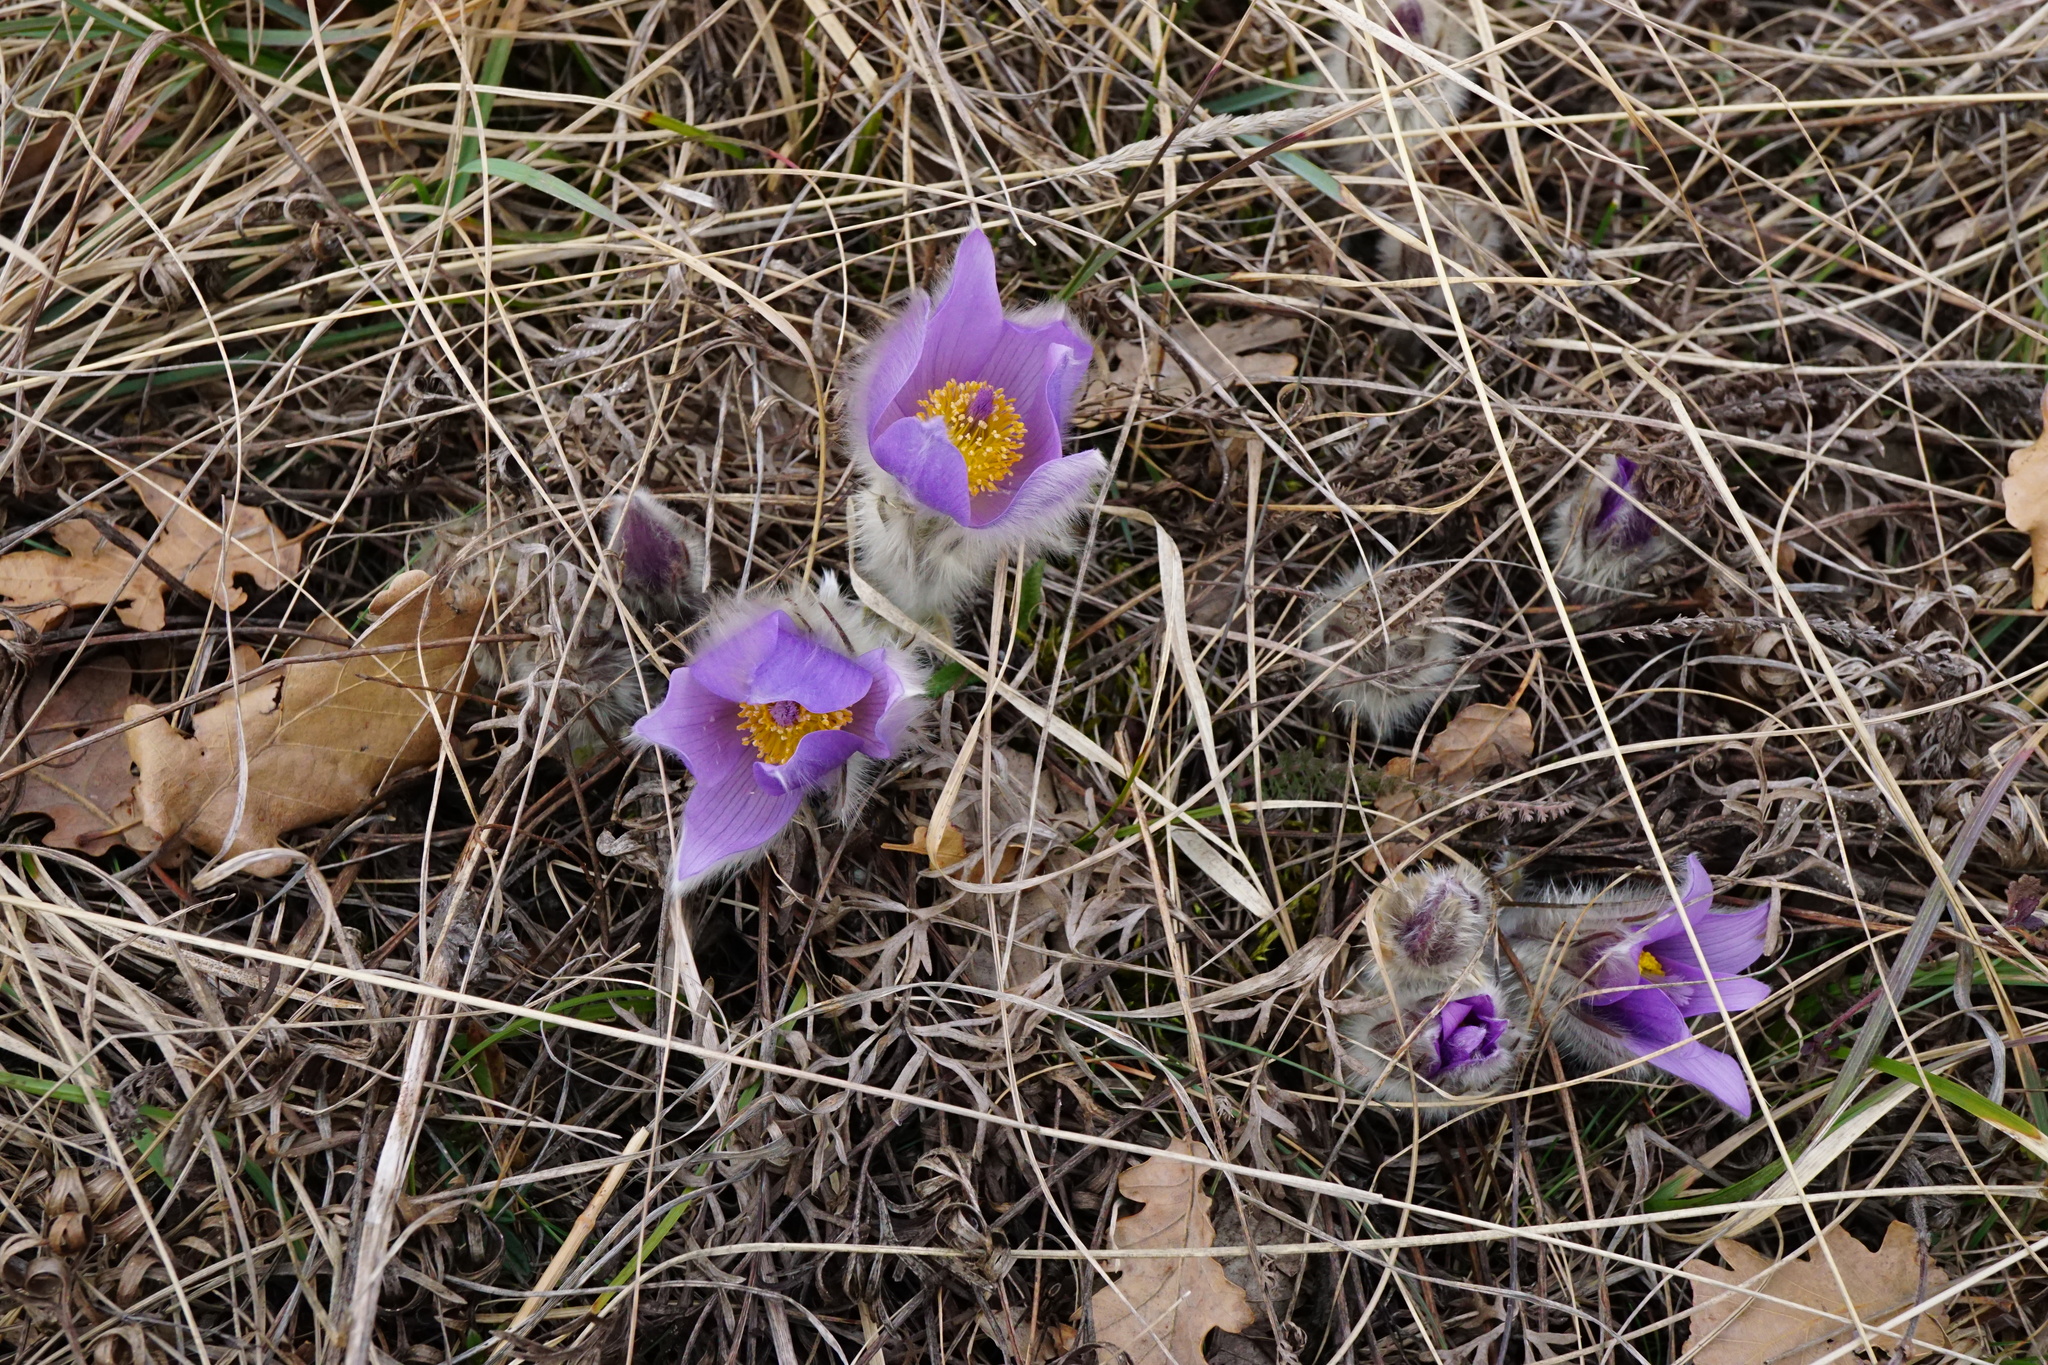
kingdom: Plantae
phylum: Tracheophyta
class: Magnoliopsida
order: Ranunculales
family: Ranunculaceae
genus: Pulsatilla
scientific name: Pulsatilla grandis
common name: Greater pasque flower
